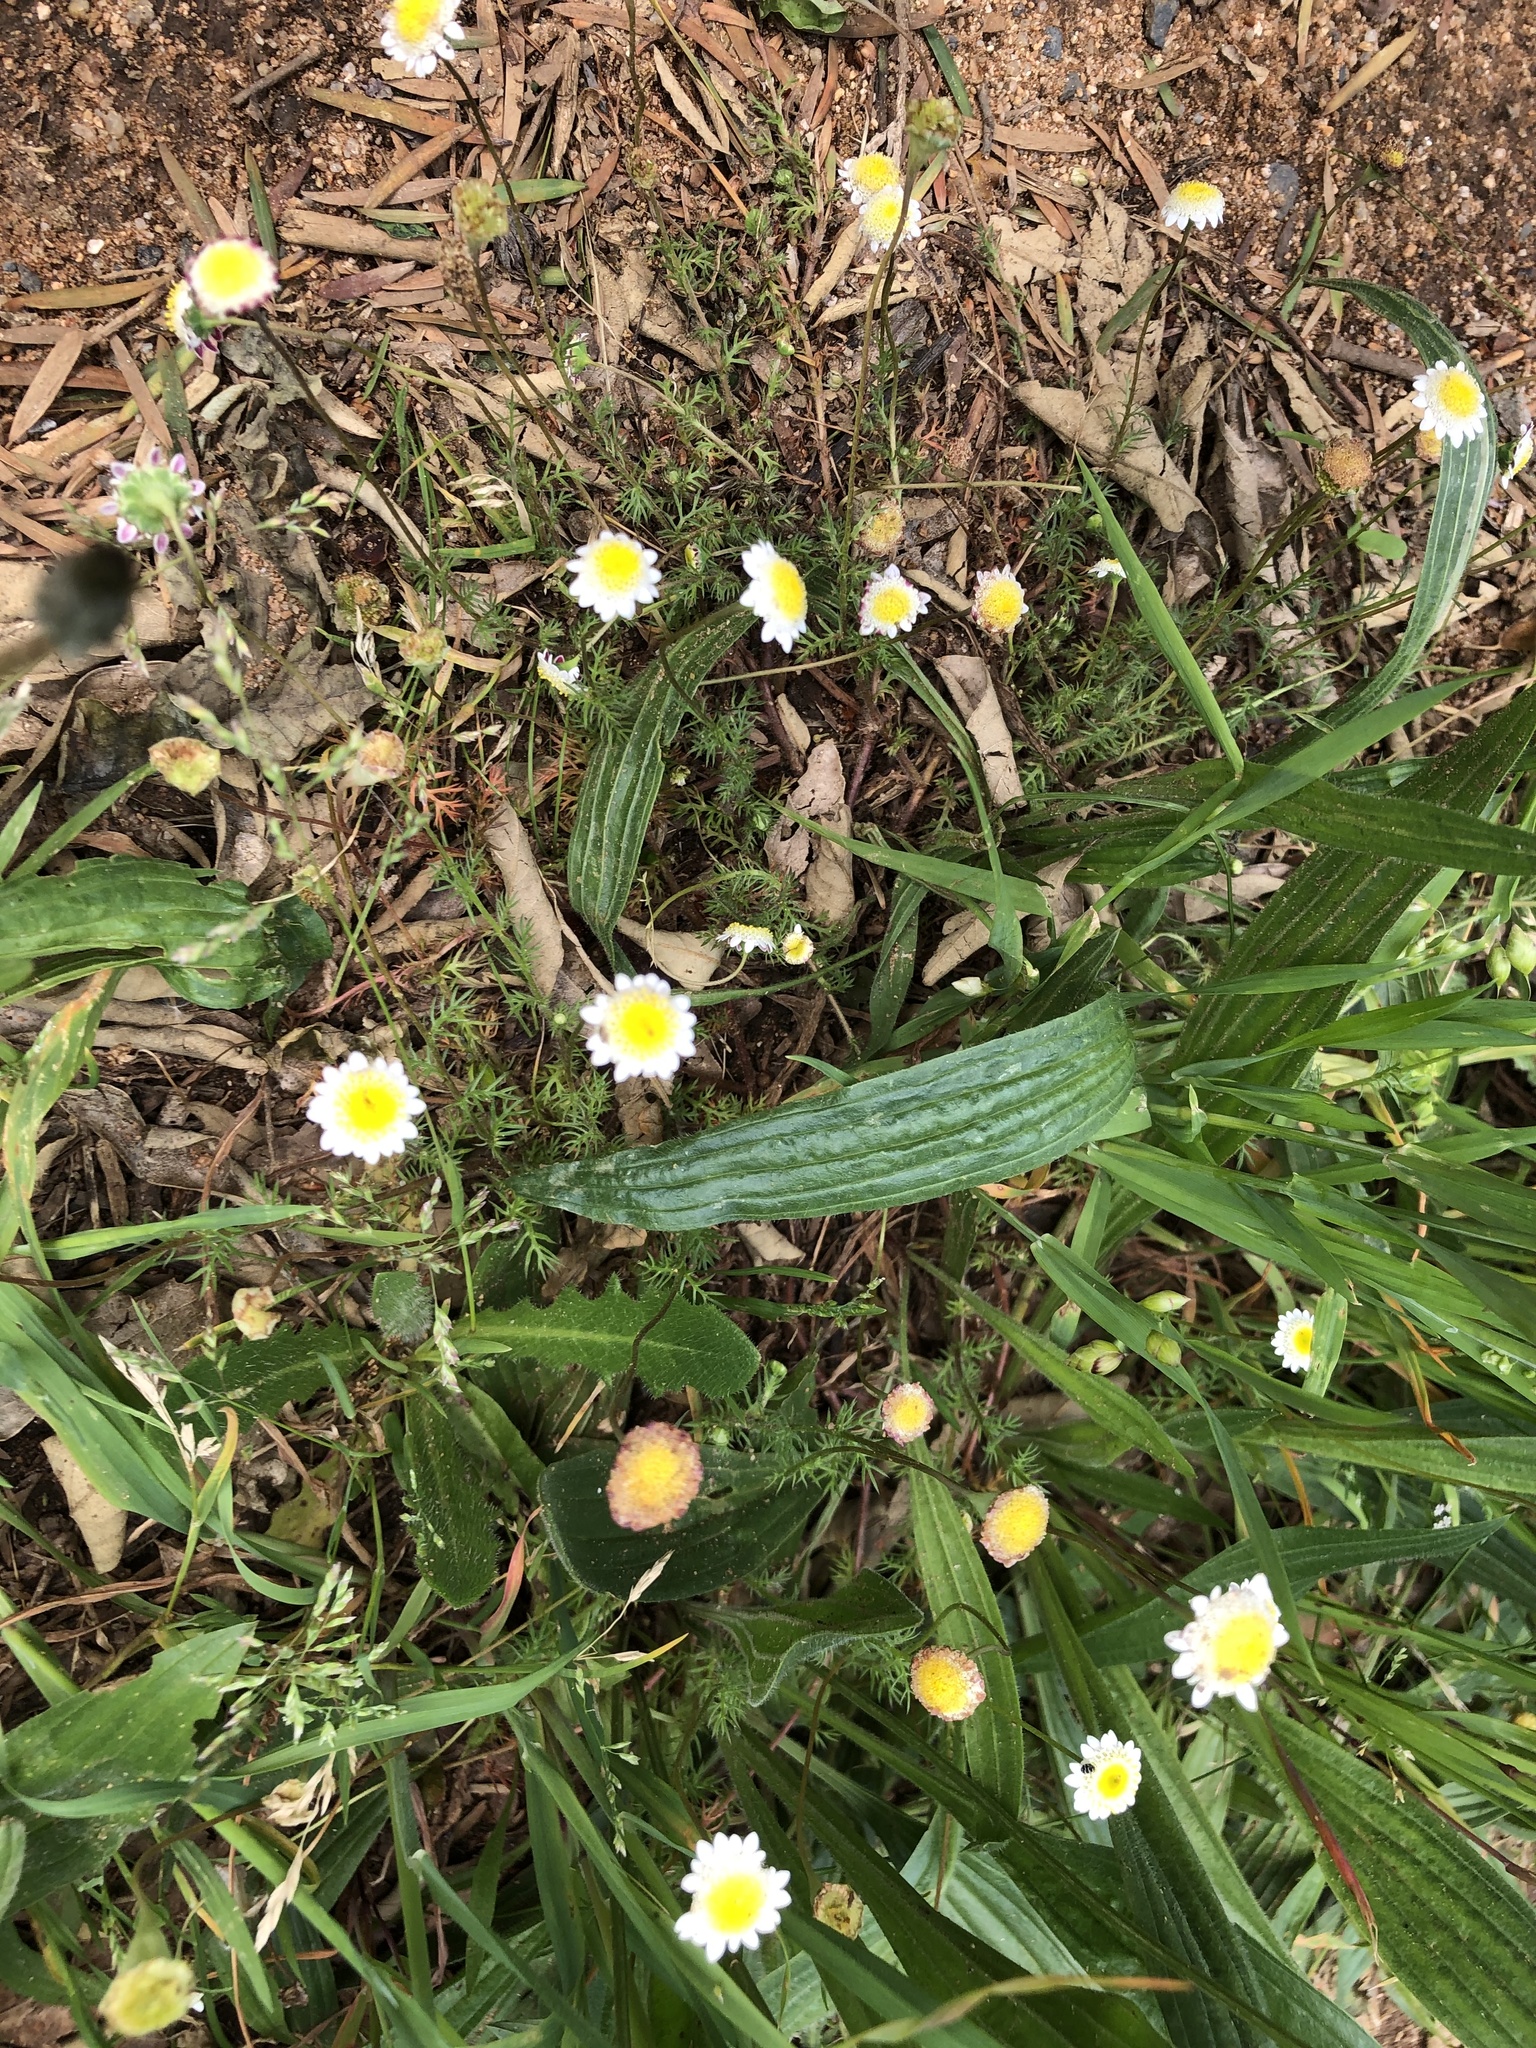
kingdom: Plantae
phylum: Tracheophyta
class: Magnoliopsida
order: Asterales
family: Asteraceae
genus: Cotula
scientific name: Cotula turbinata
